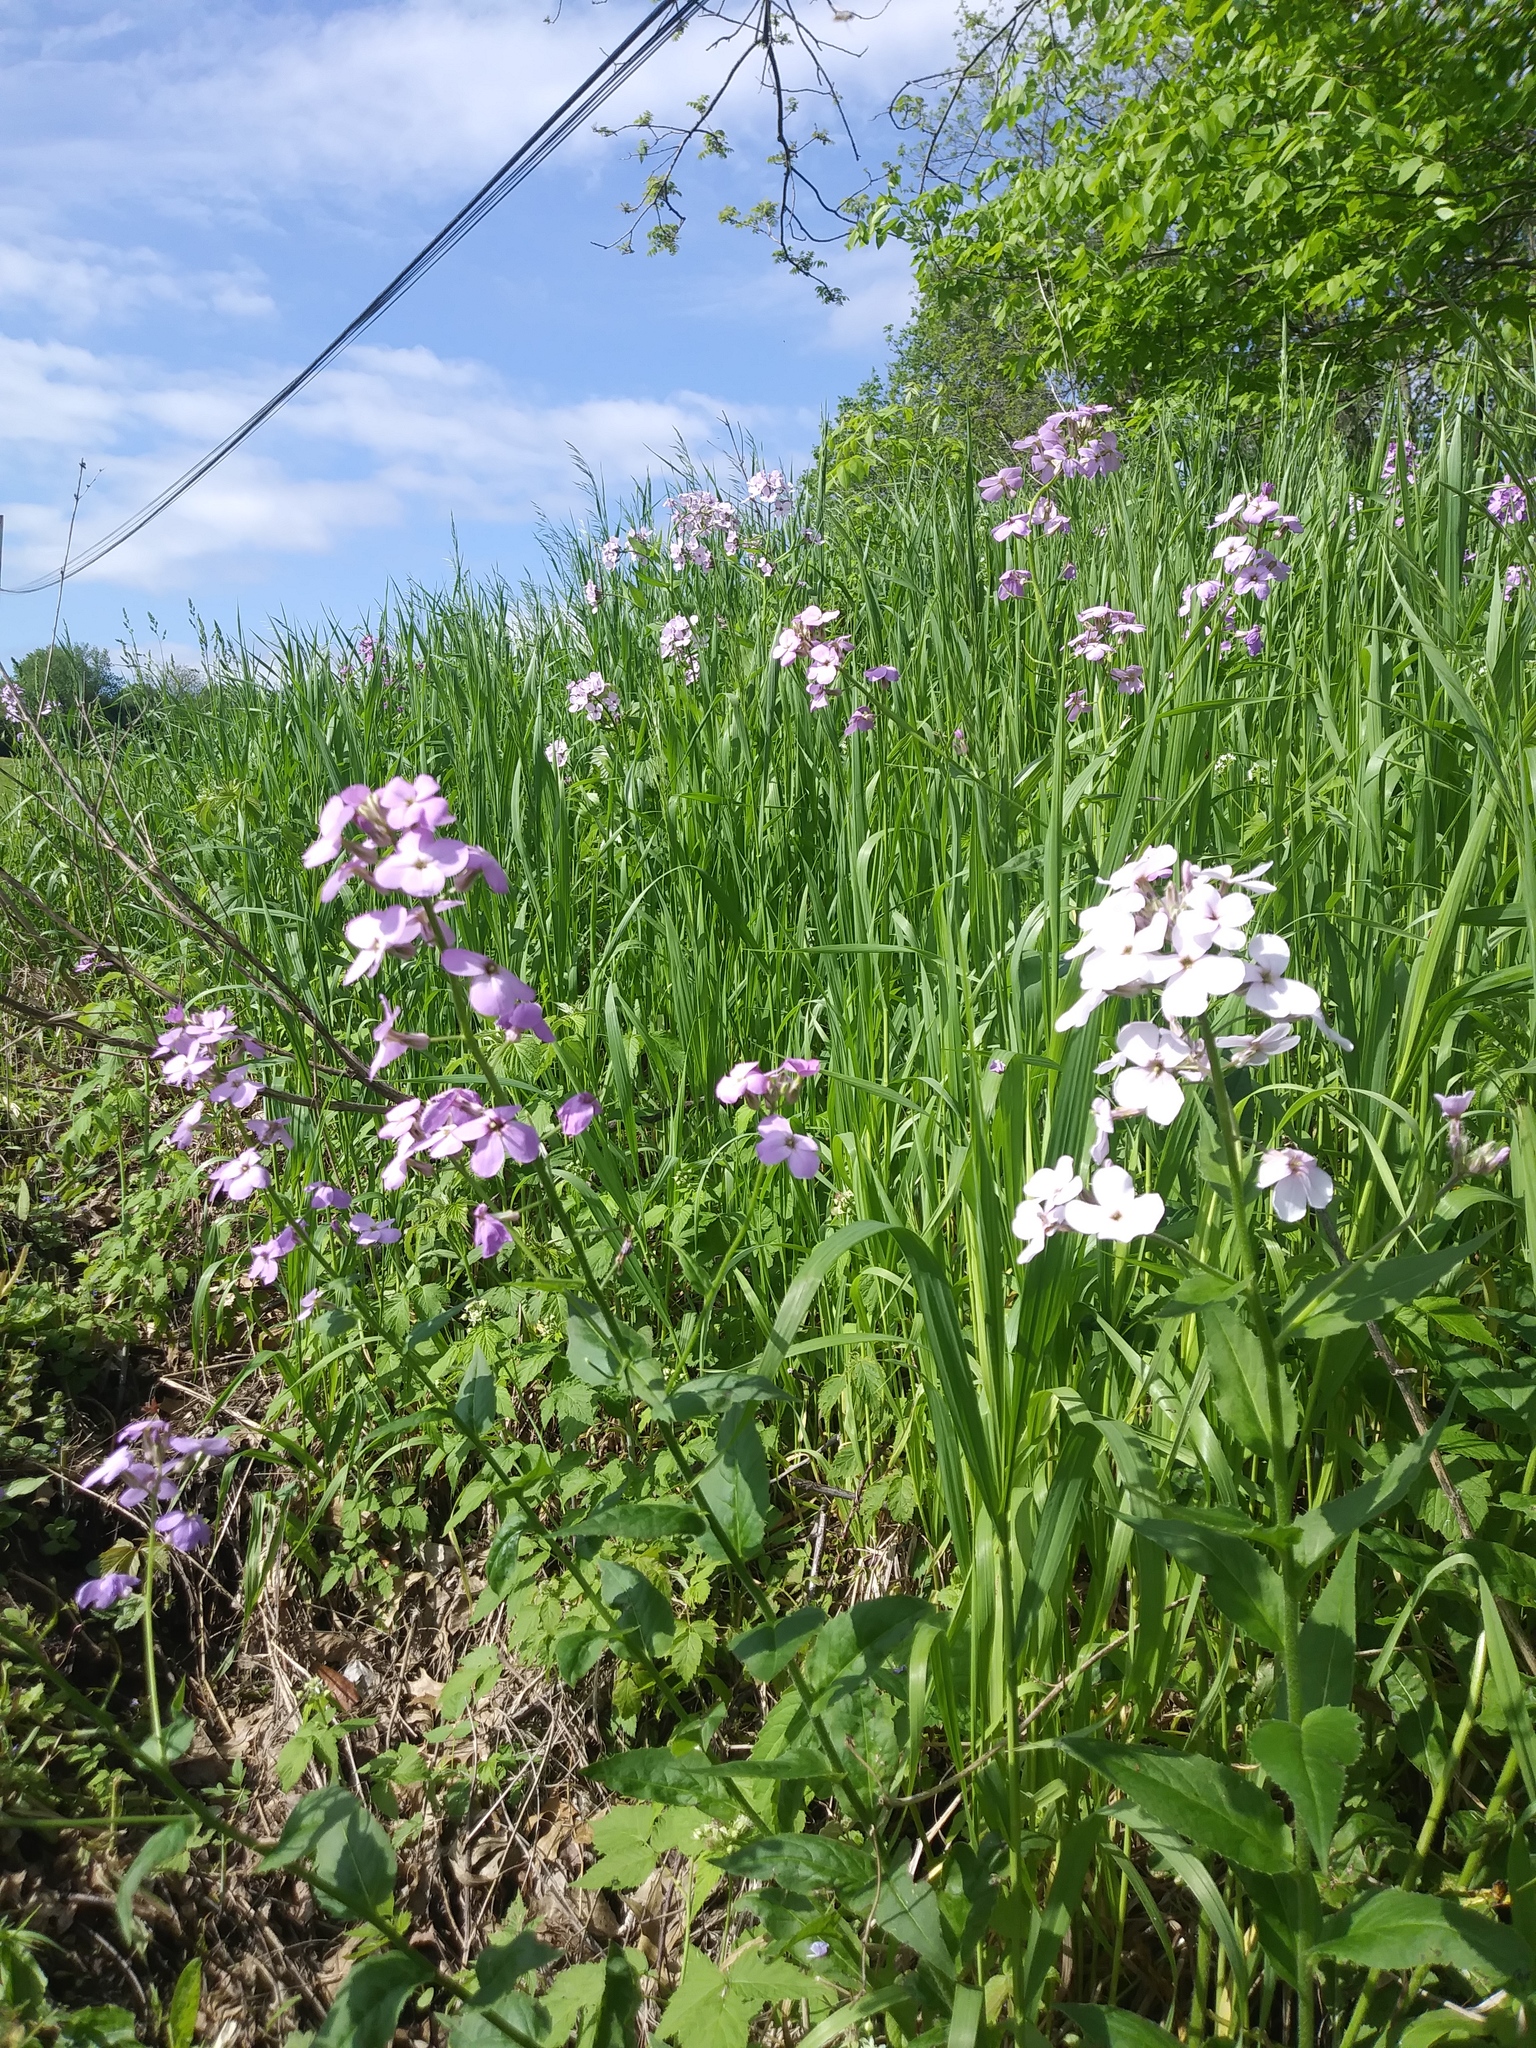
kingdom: Plantae
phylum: Tracheophyta
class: Magnoliopsida
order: Brassicales
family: Brassicaceae
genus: Hesperis
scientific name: Hesperis matronalis
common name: Dame's-violet
